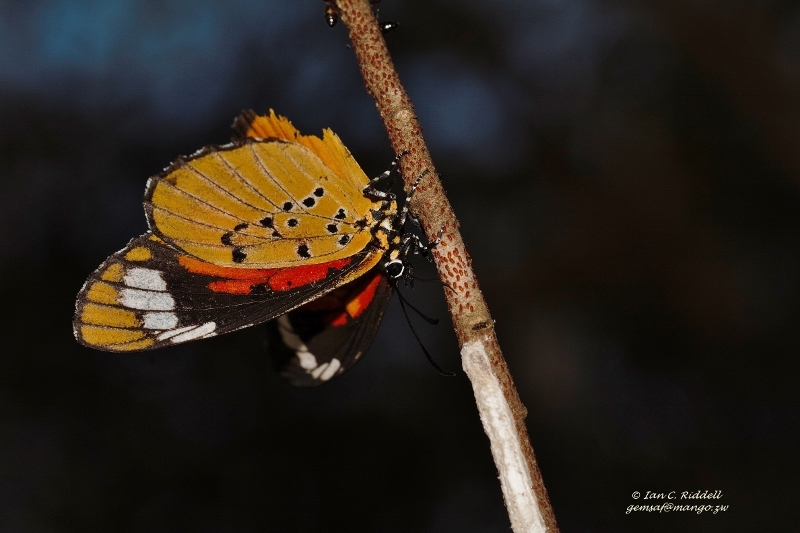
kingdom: Animalia
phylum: Arthropoda
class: Insecta
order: Lepidoptera
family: Lycaenidae
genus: Mimacraea
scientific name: Mimacraea marshalli
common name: Marshall’s acraea mimic
